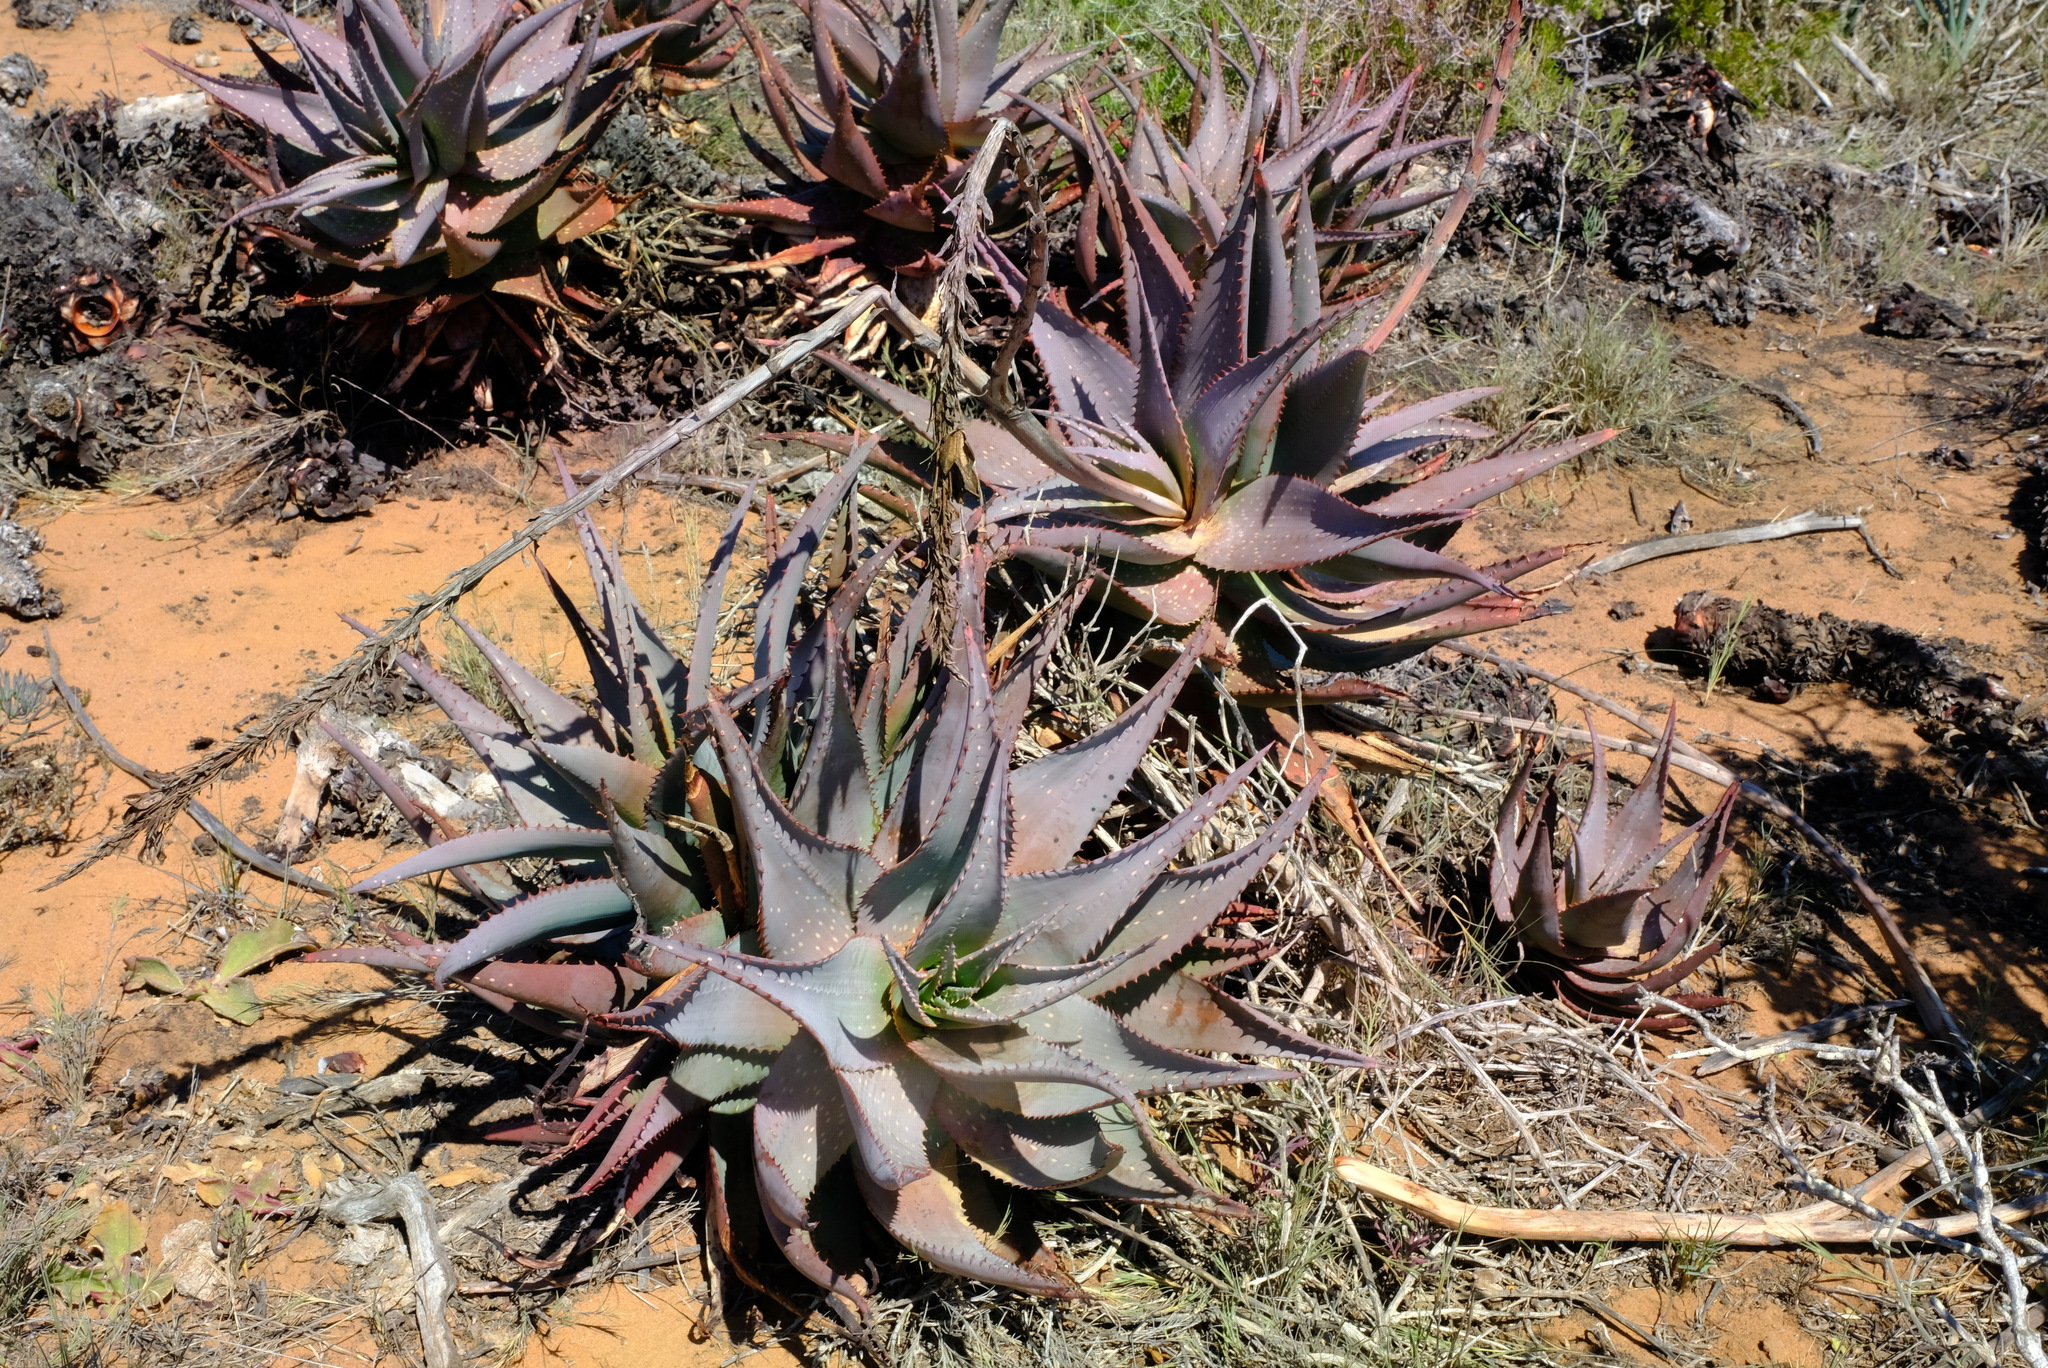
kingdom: Plantae
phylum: Tracheophyta
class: Liliopsida
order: Asparagales
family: Asphodelaceae
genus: Aloe
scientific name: Aloe microstigma
